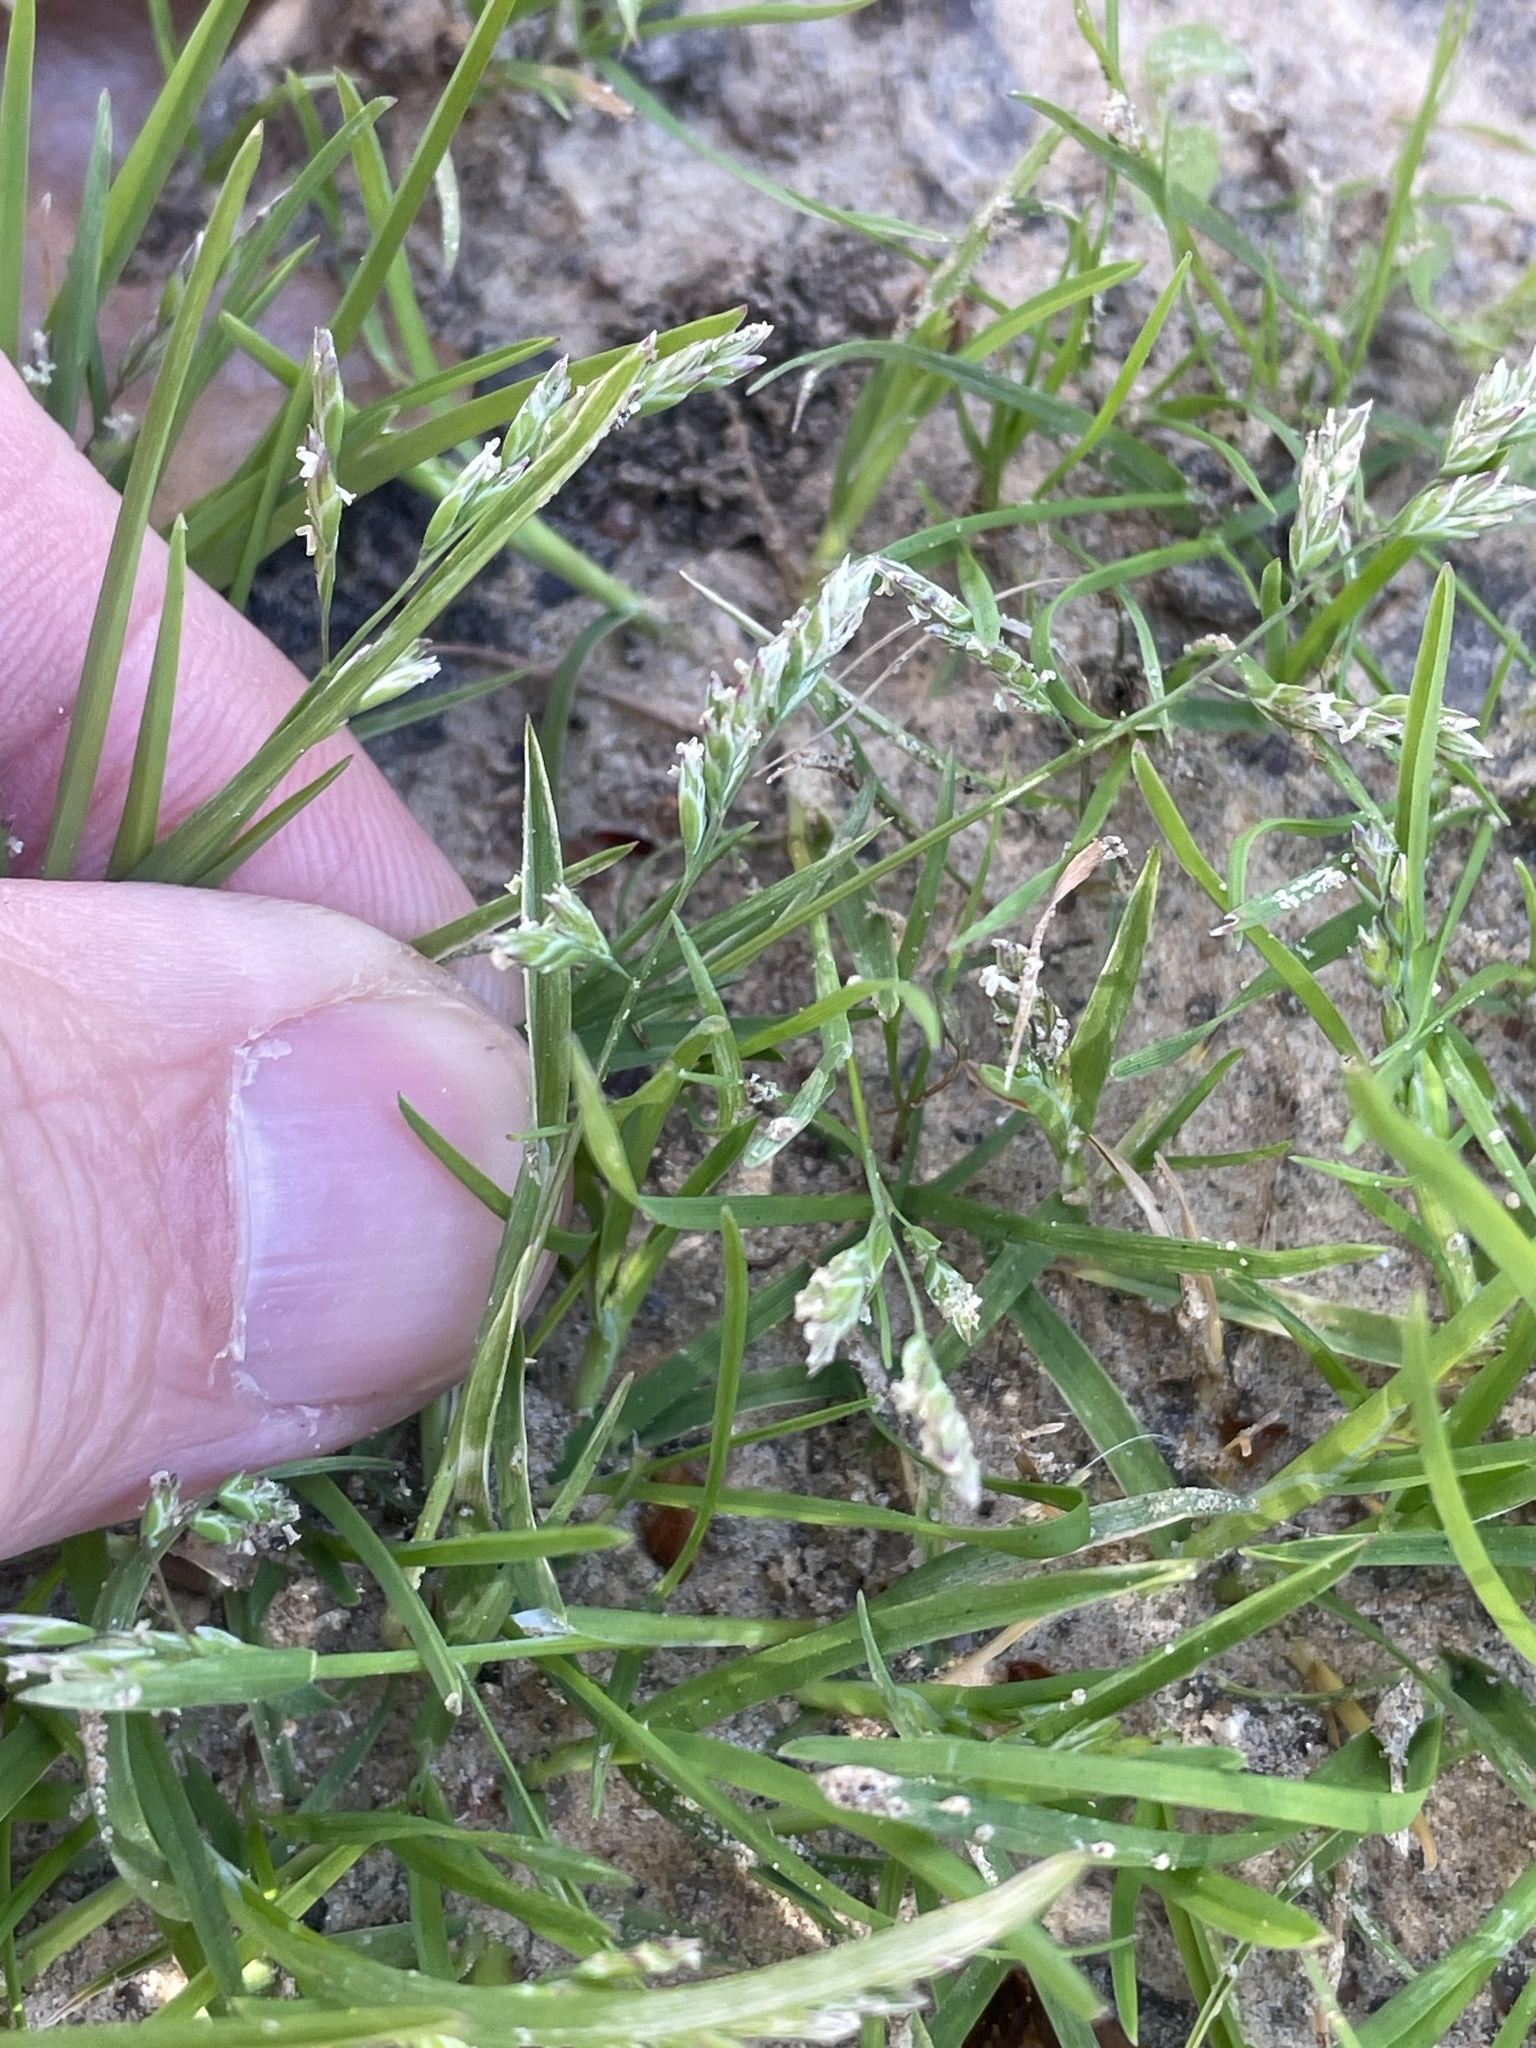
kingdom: Plantae
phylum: Tracheophyta
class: Liliopsida
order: Poales
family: Poaceae
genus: Poa
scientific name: Poa annua
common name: Annual bluegrass
